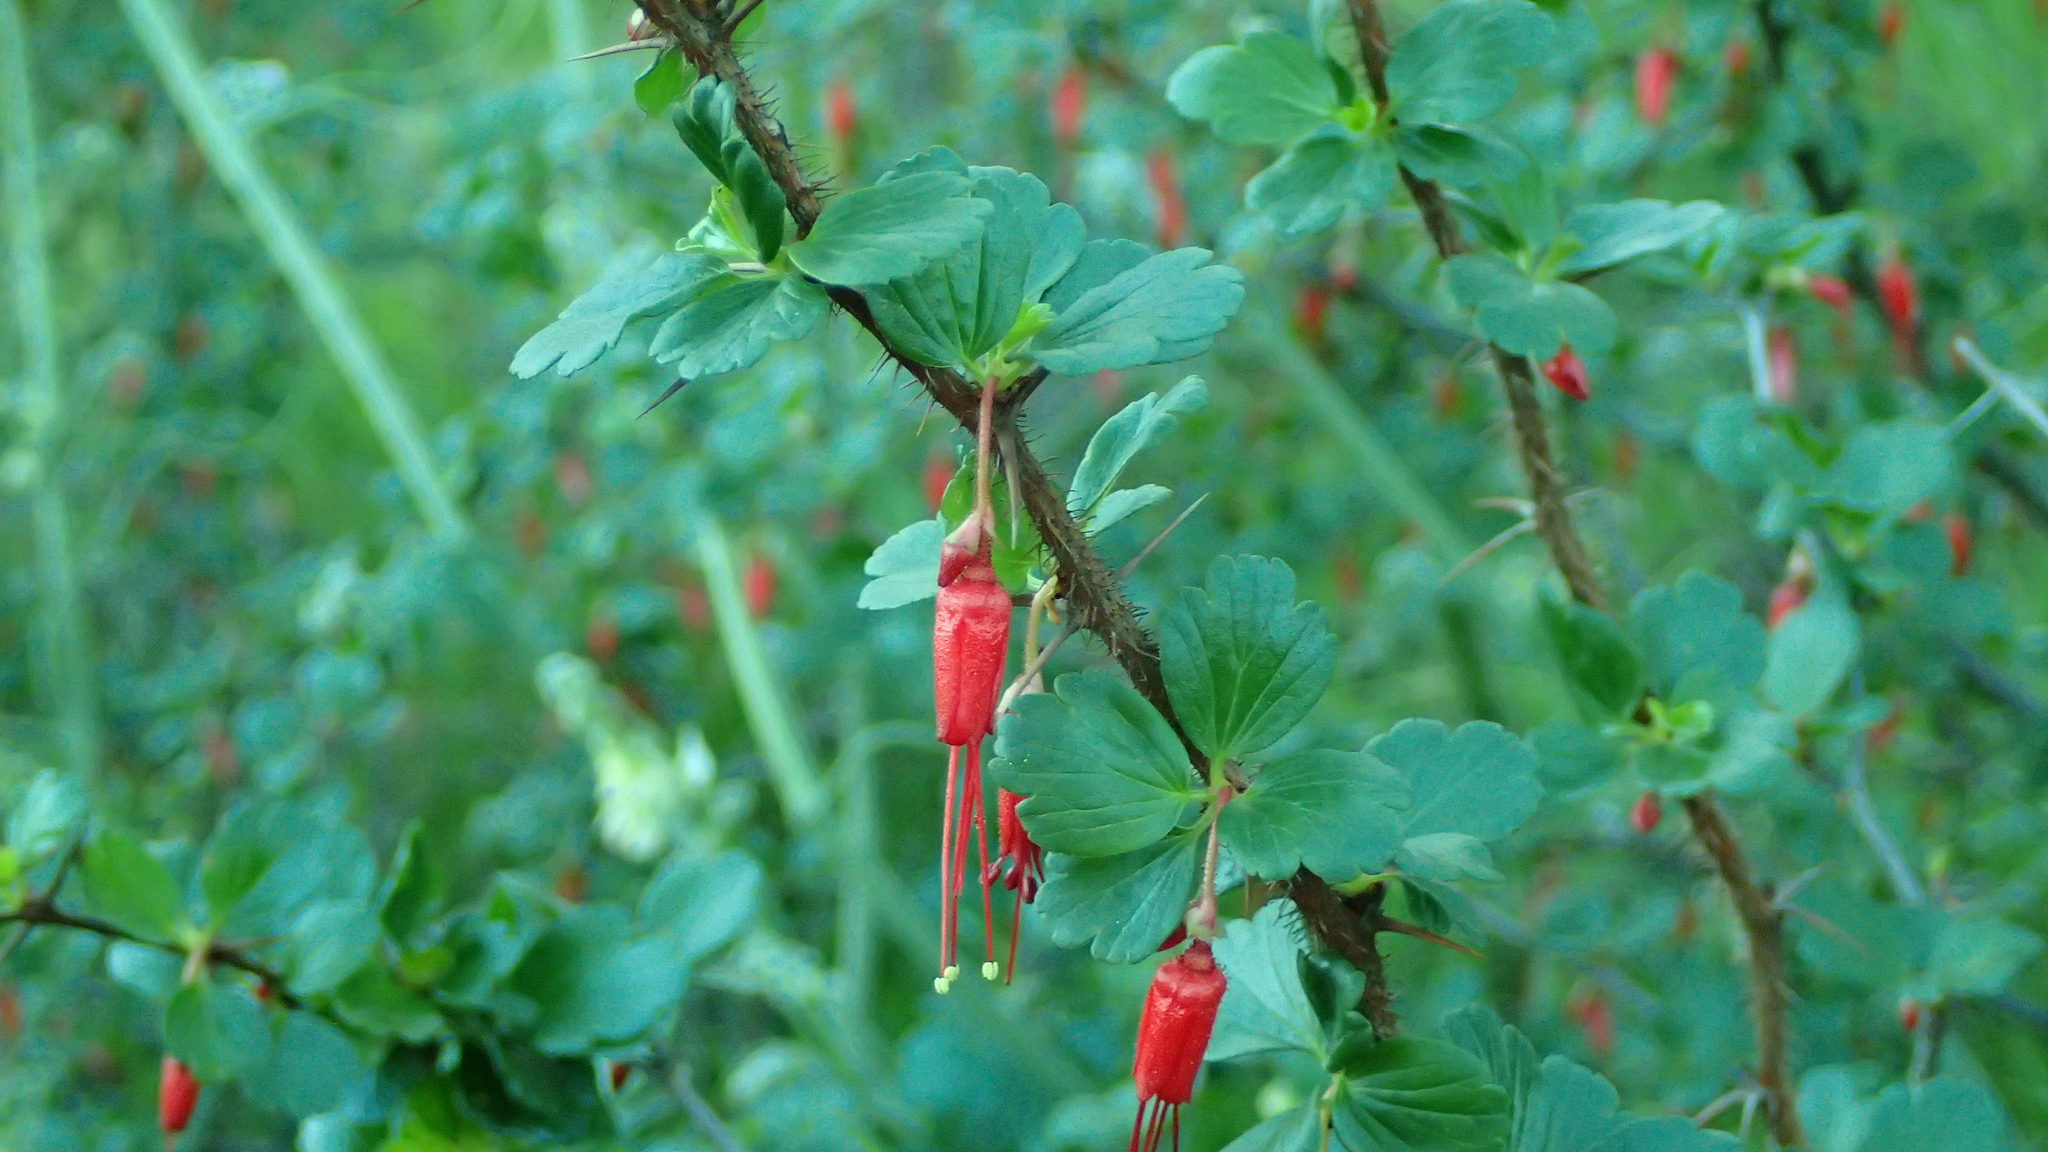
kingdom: Plantae
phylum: Tracheophyta
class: Magnoliopsida
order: Saxifragales
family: Grossulariaceae
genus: Ribes
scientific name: Ribes speciosum
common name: Fuchsia-flower gooseberry
